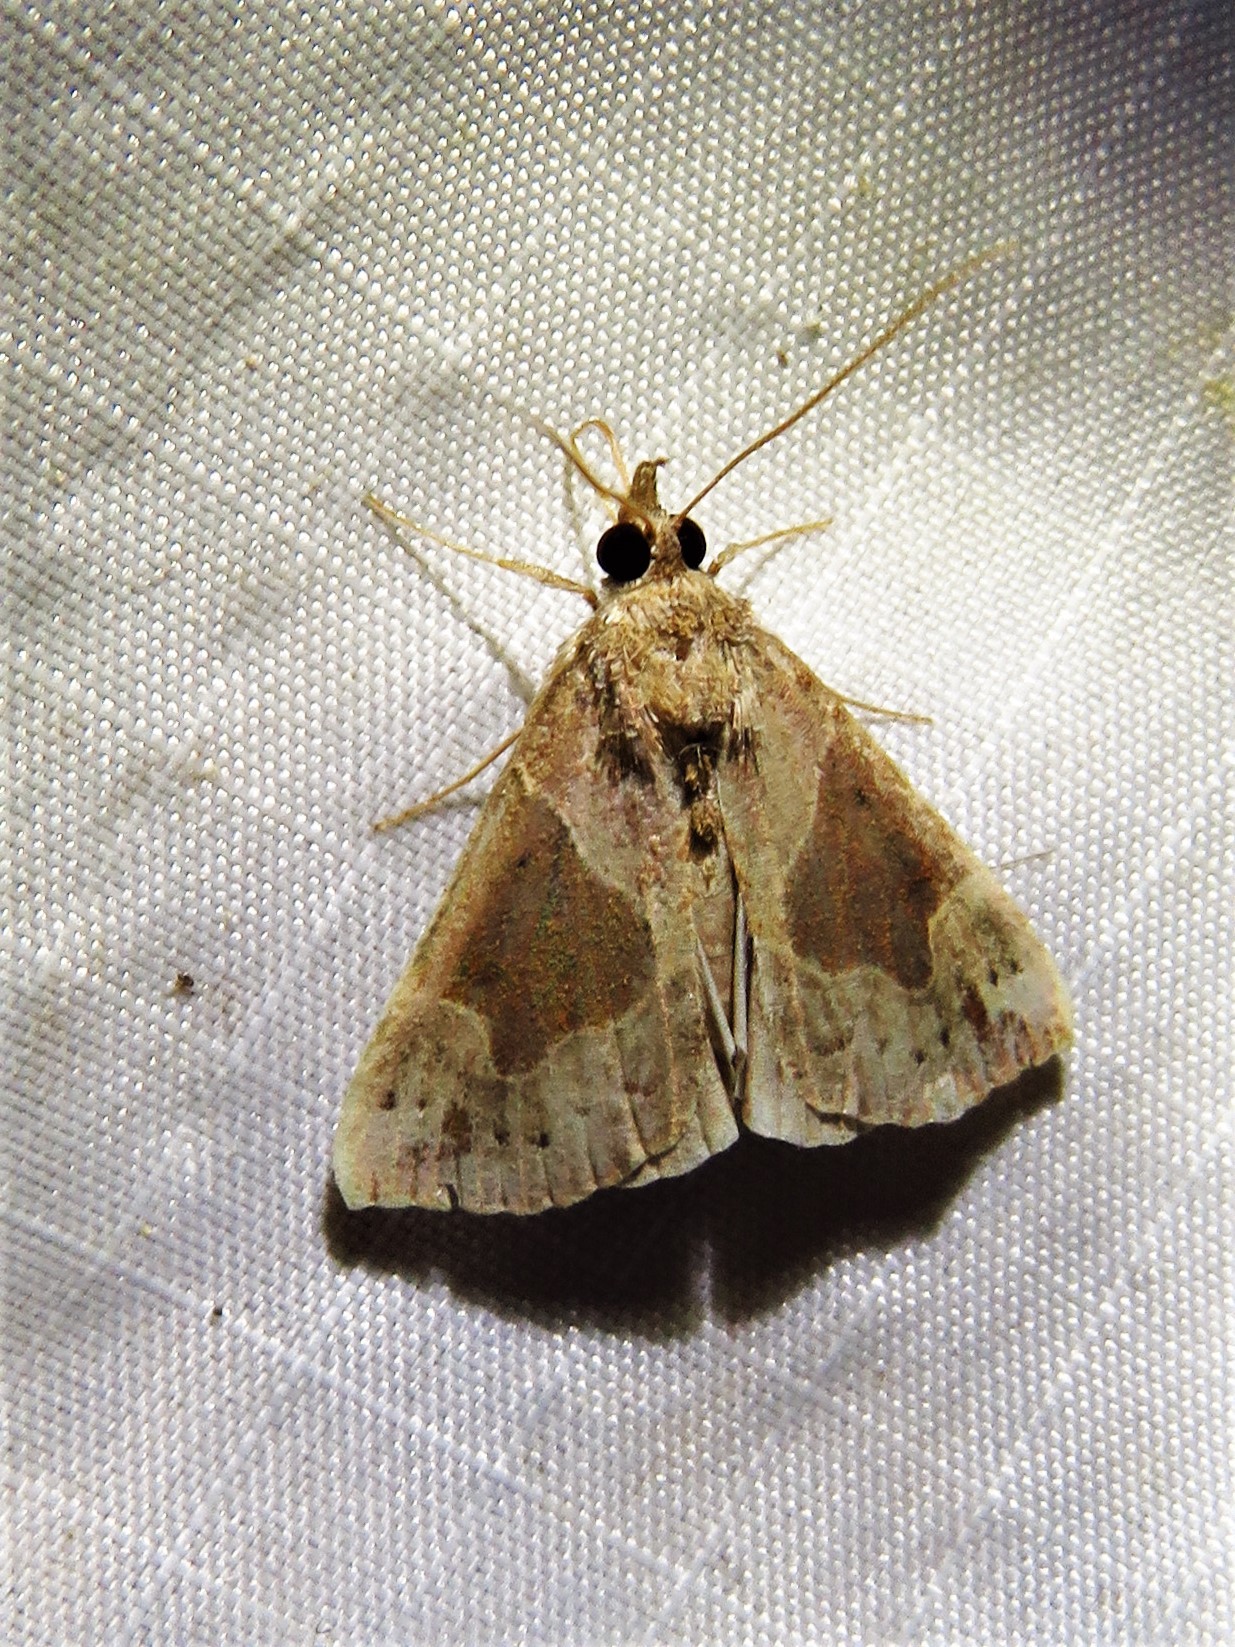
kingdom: Animalia
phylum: Arthropoda
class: Insecta
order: Lepidoptera
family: Erebidae
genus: Hypena
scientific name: Hypena manalis
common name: Flowing-line bomolocha moth
